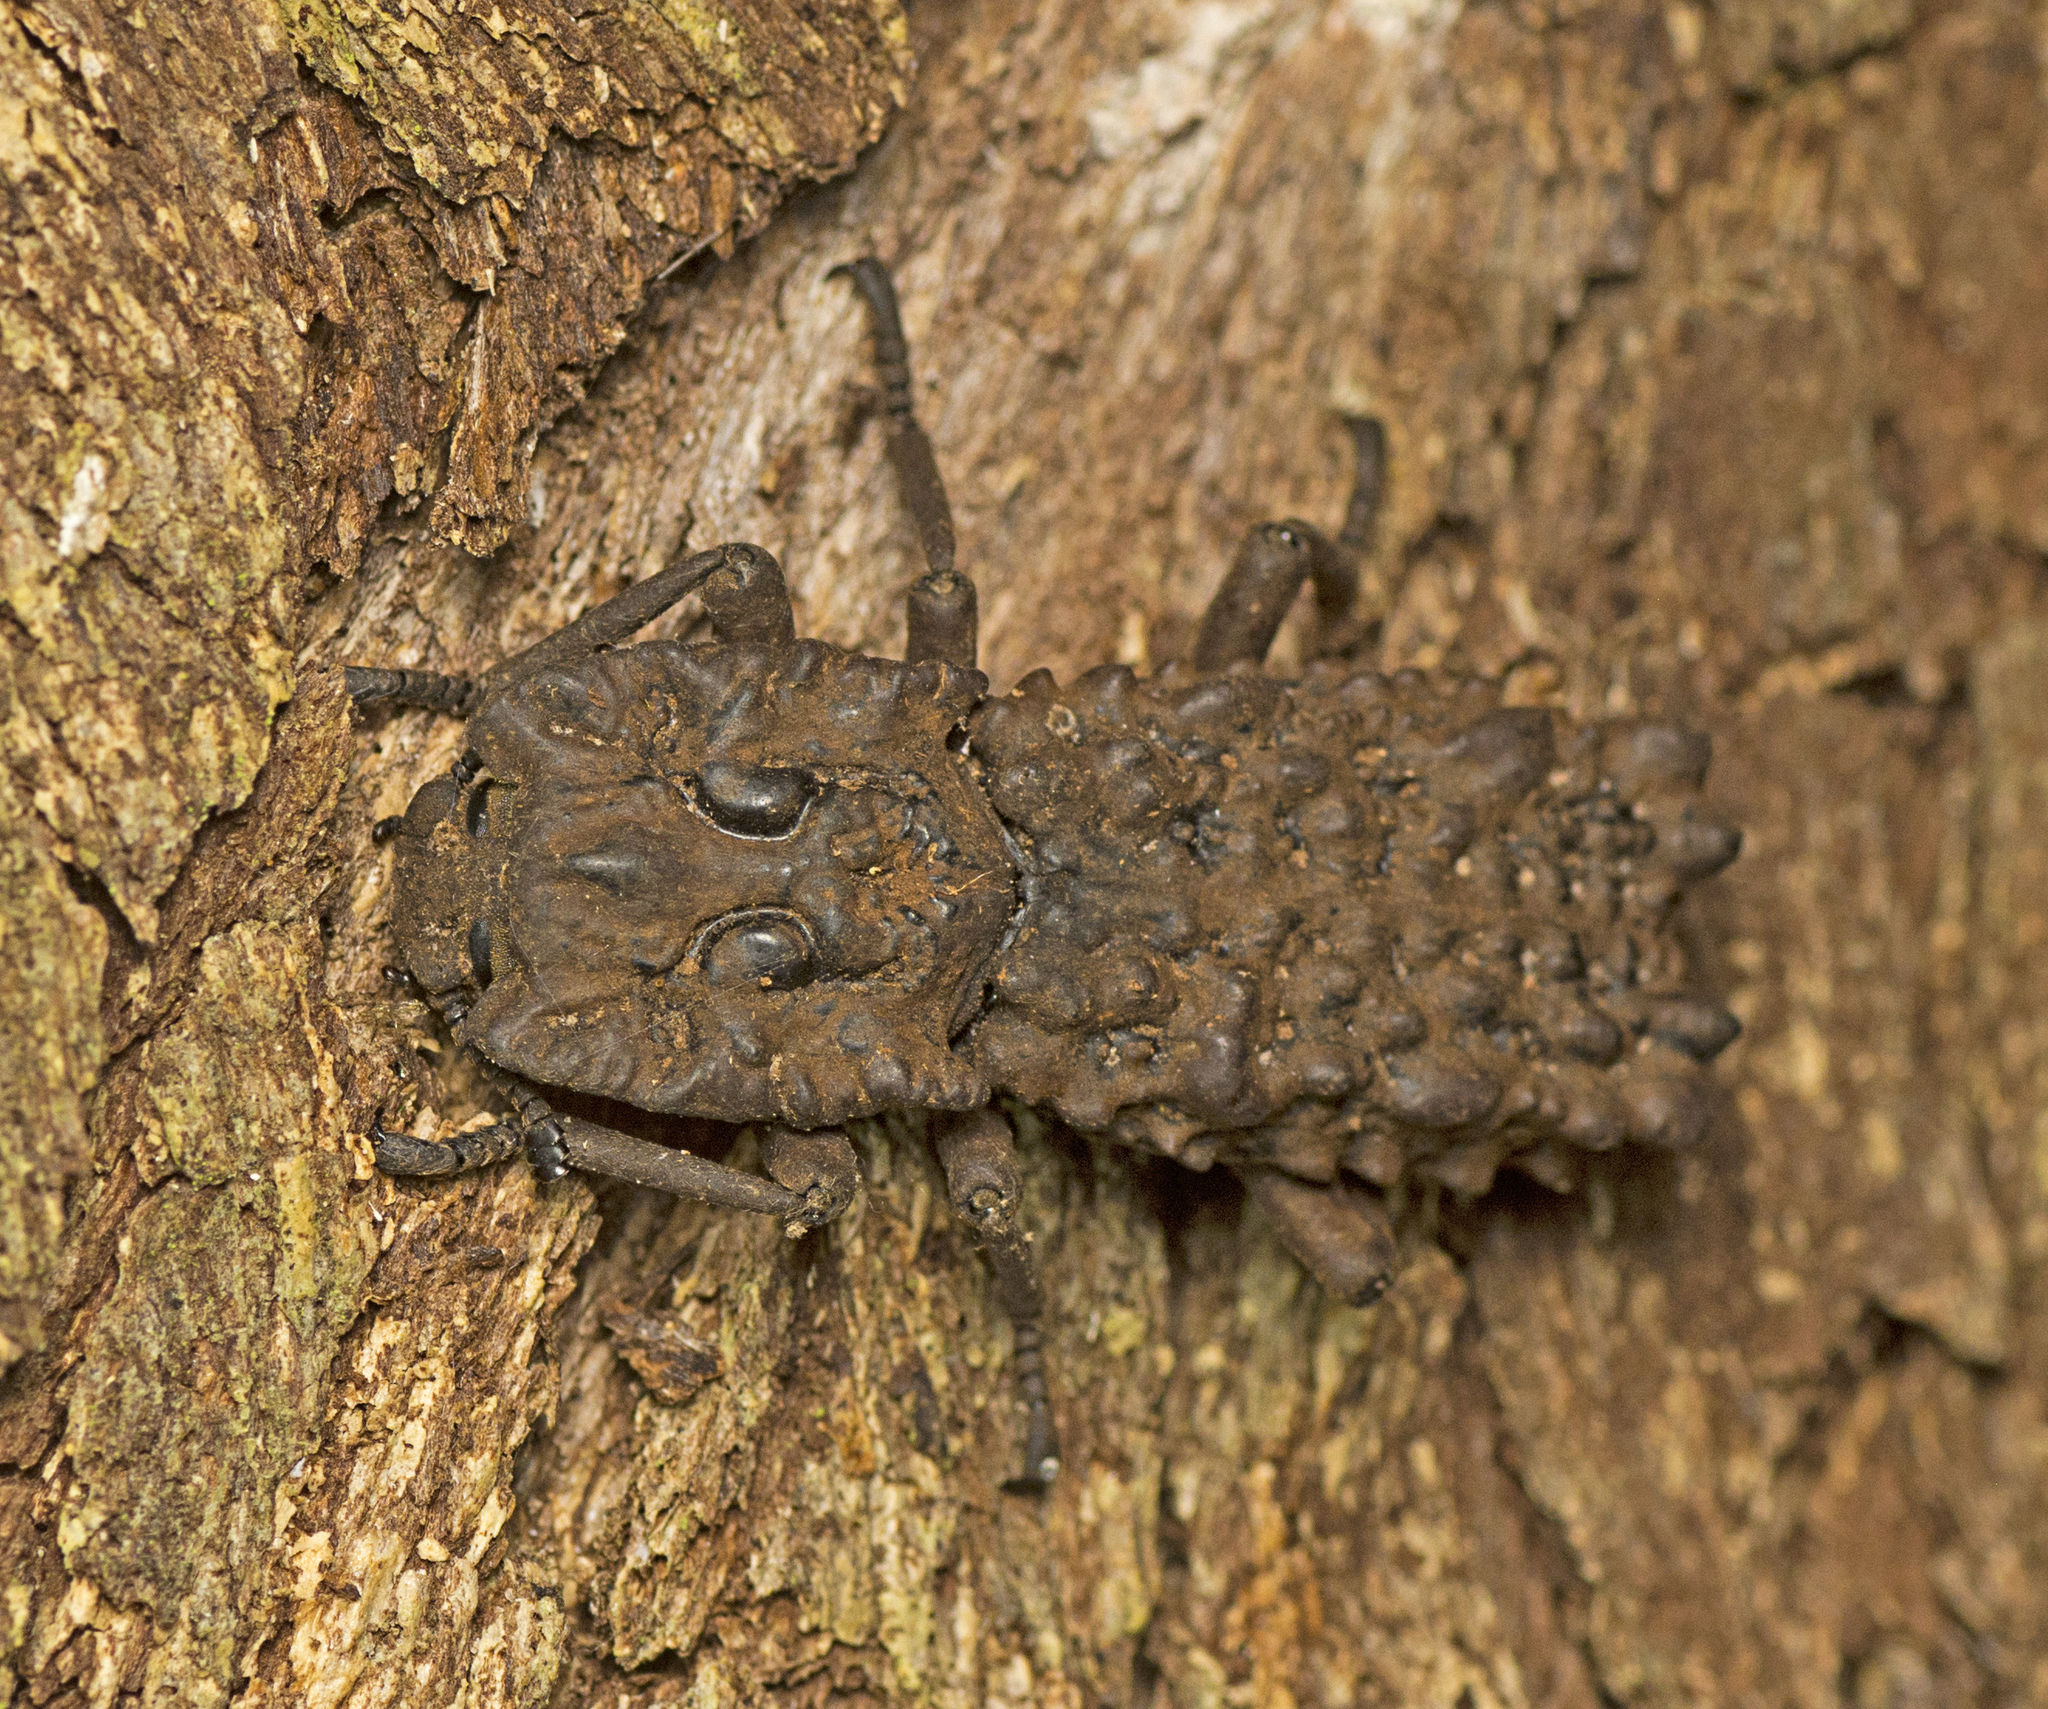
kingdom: Animalia
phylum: Arthropoda
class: Insecta
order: Coleoptera
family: Zopheridae
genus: Zopherosis
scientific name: Zopherosis
